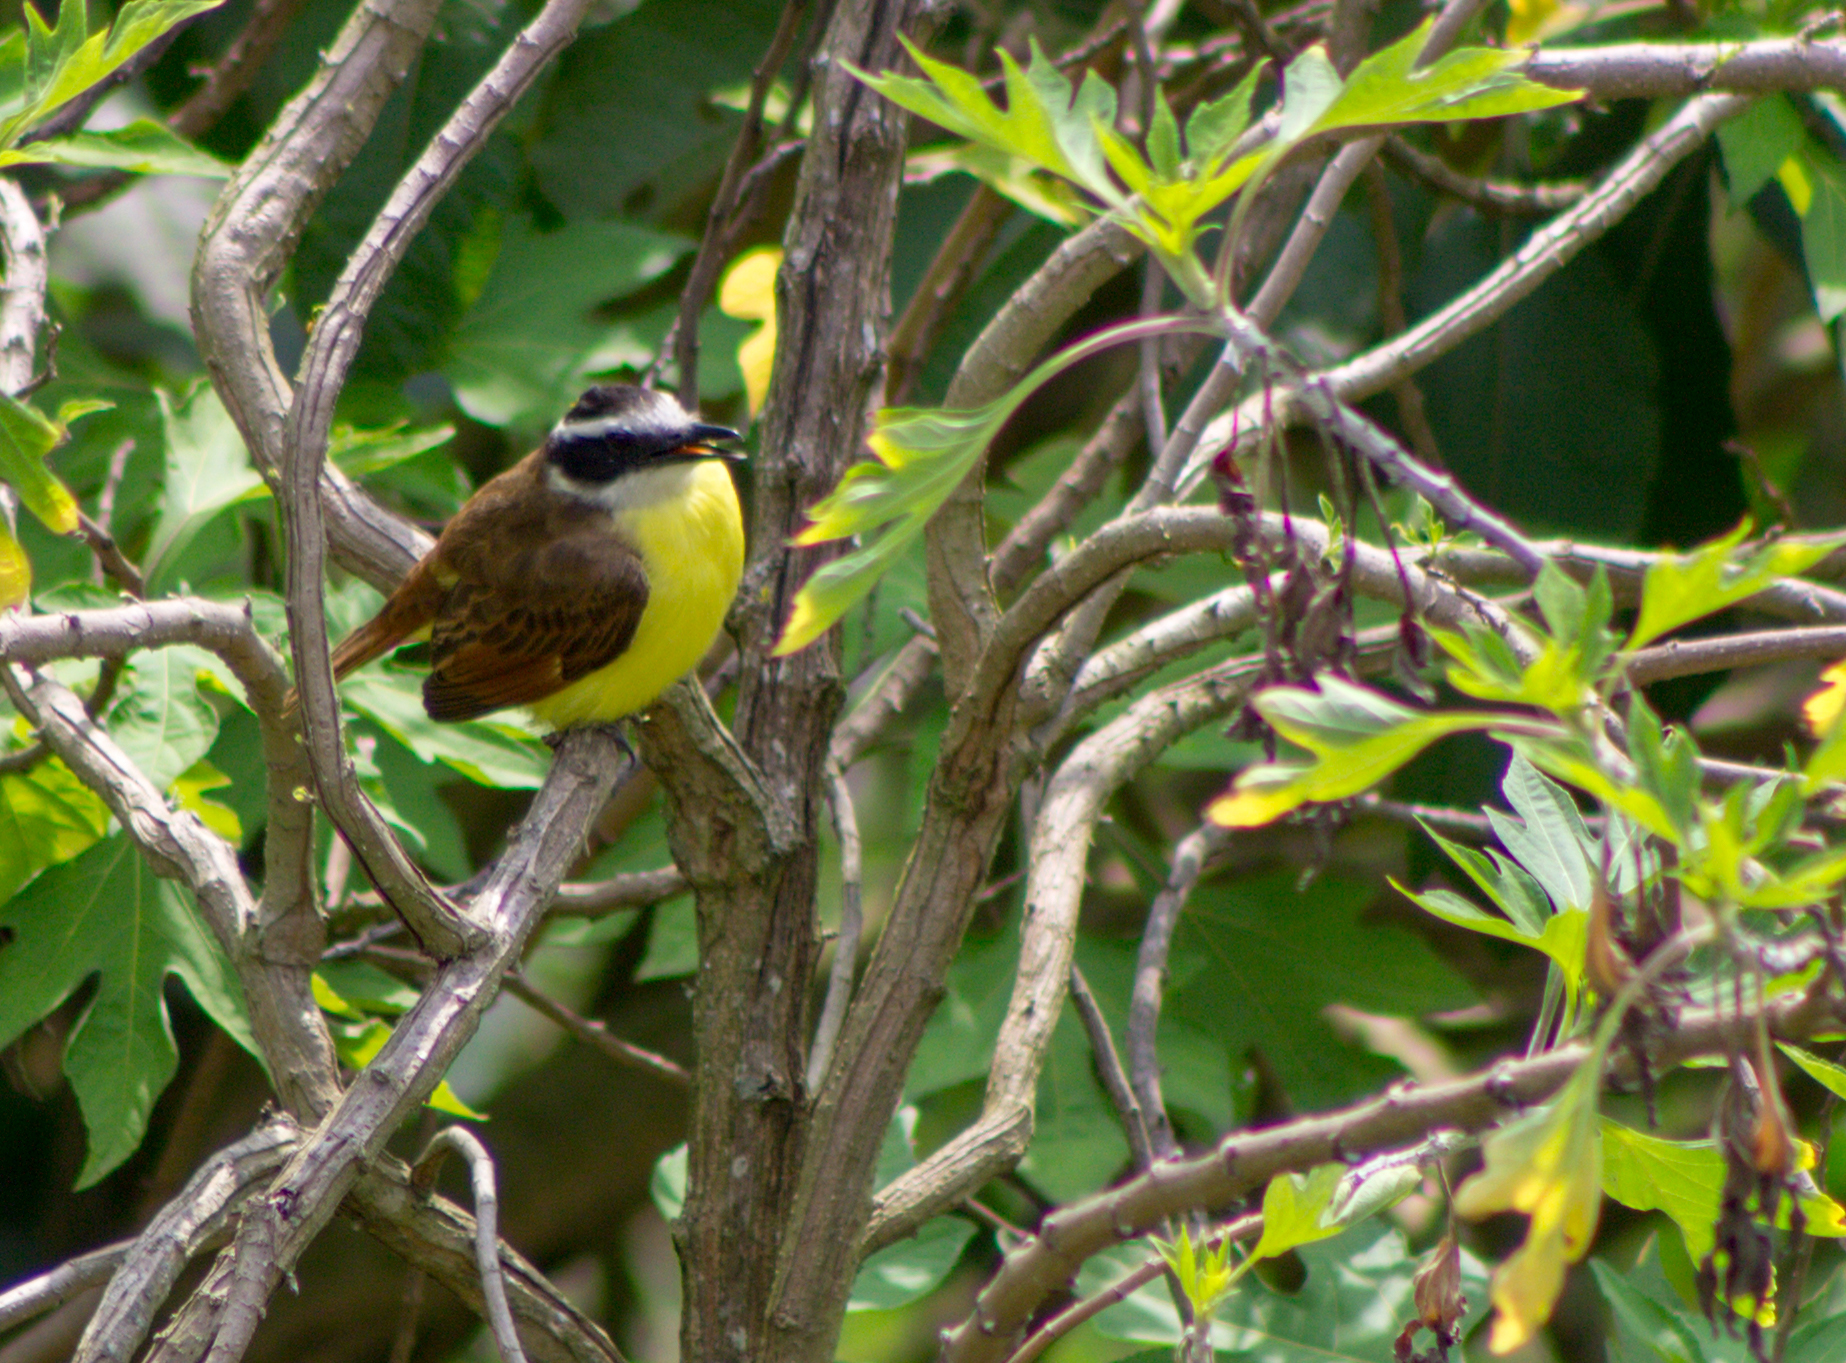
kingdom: Animalia
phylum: Chordata
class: Aves
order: Passeriformes
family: Tyrannidae
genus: Pitangus
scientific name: Pitangus sulphuratus
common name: Great kiskadee
